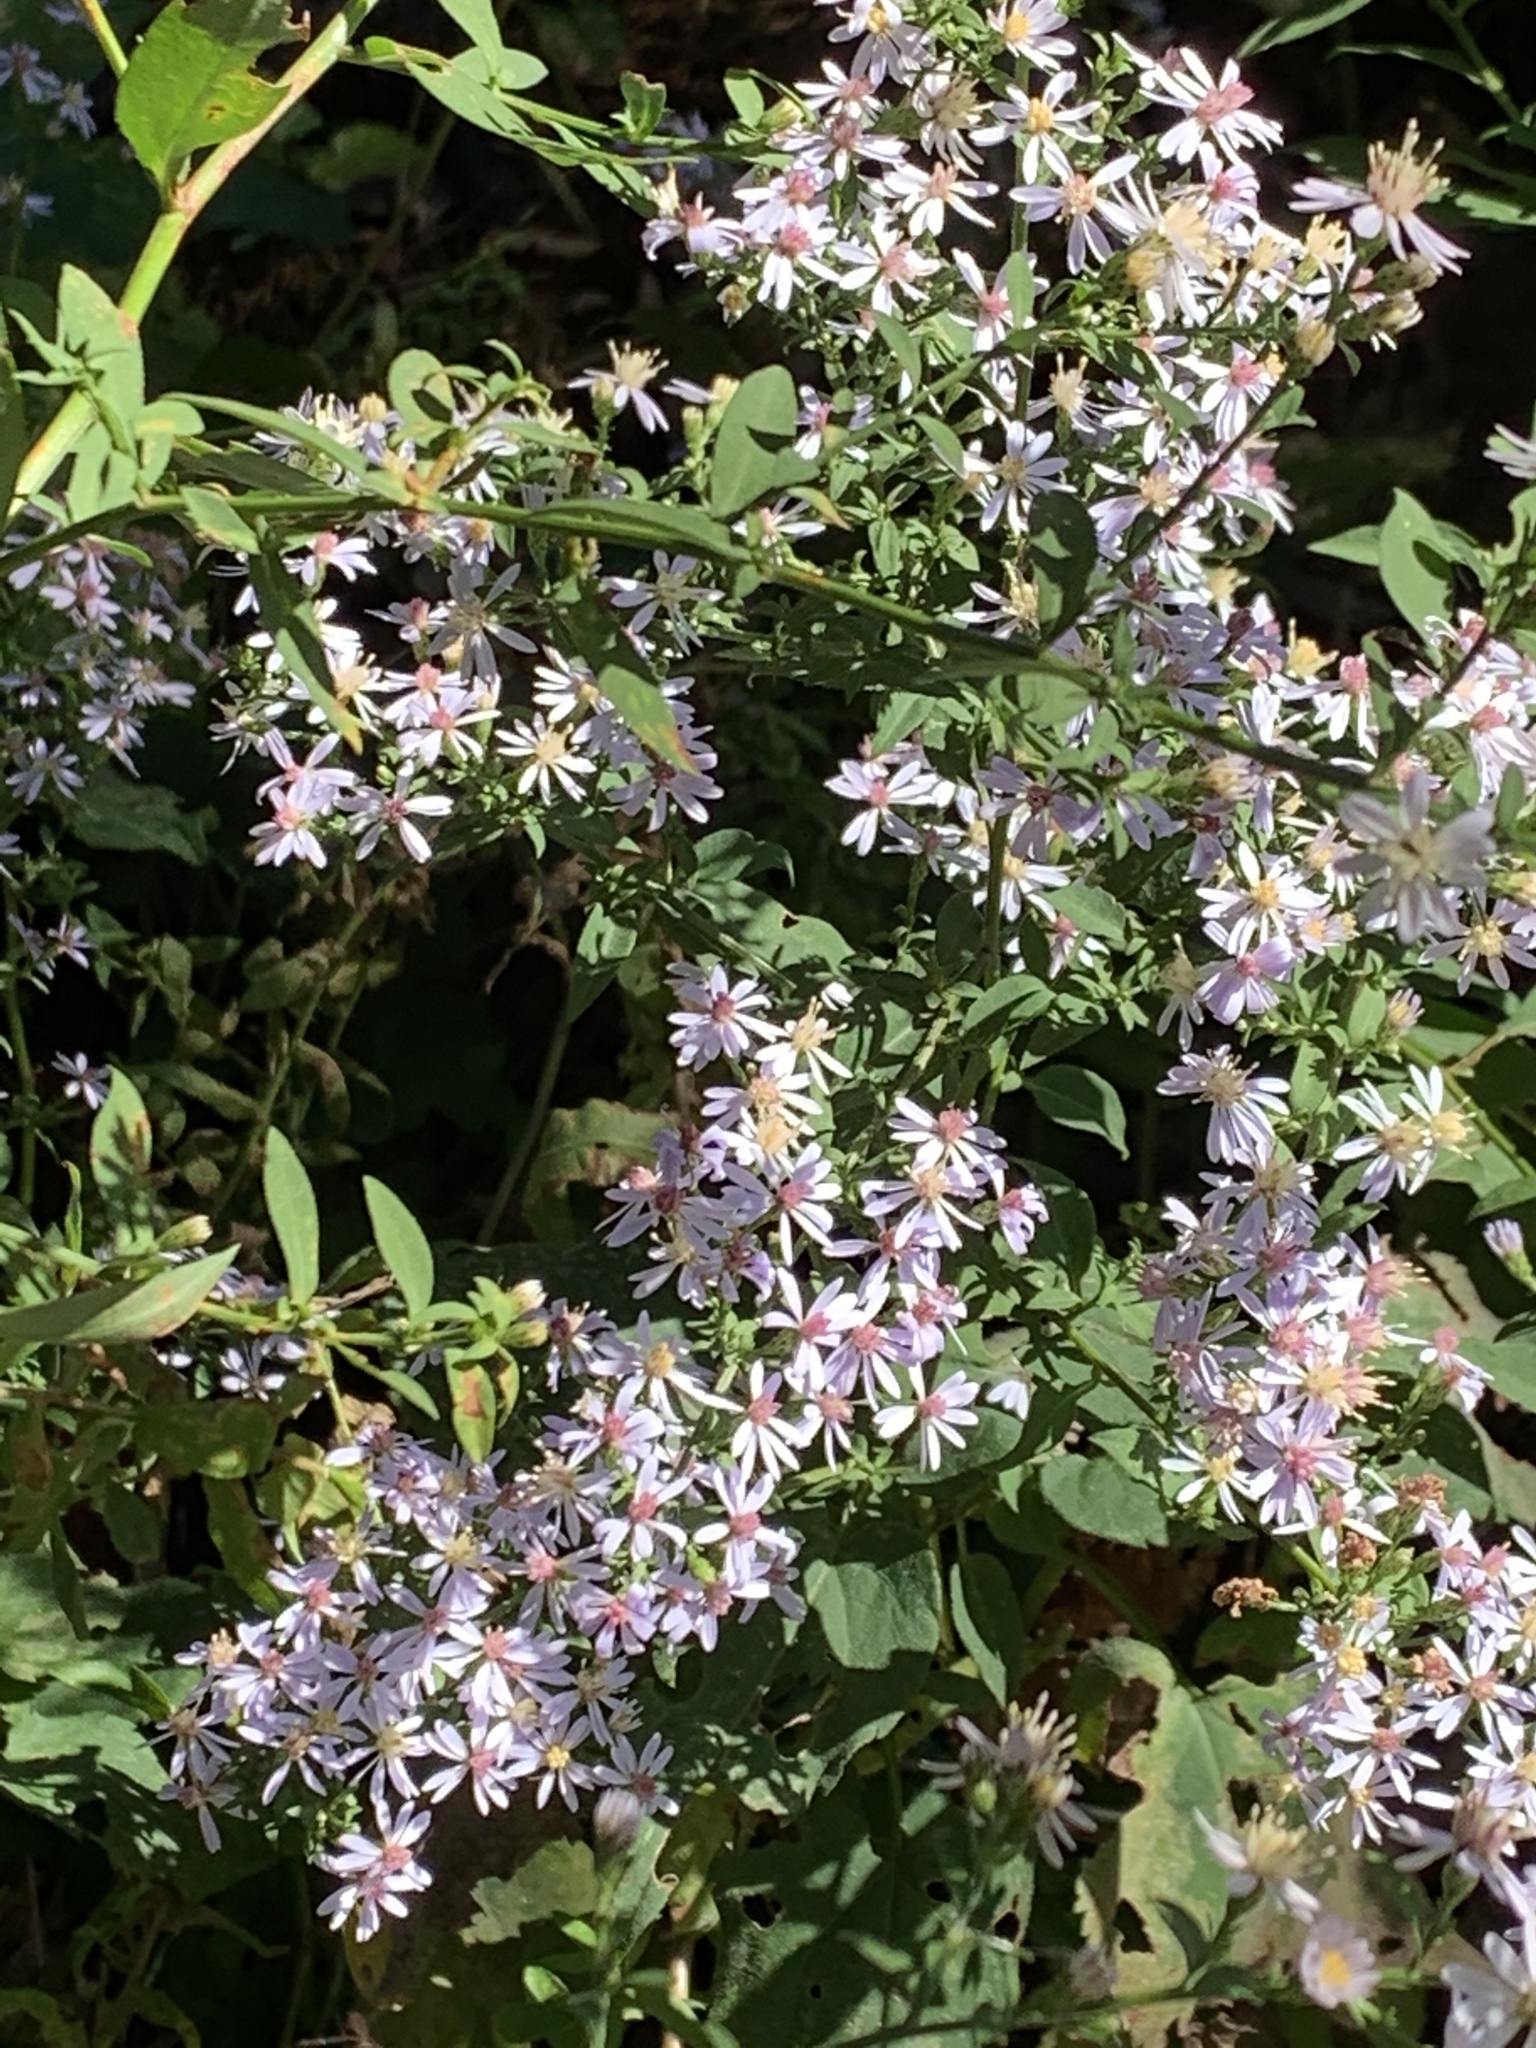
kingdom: Plantae
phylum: Tracheophyta
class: Magnoliopsida
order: Asterales
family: Asteraceae
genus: Symphyotrichum
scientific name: Symphyotrichum cordifolium
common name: Beeweed
